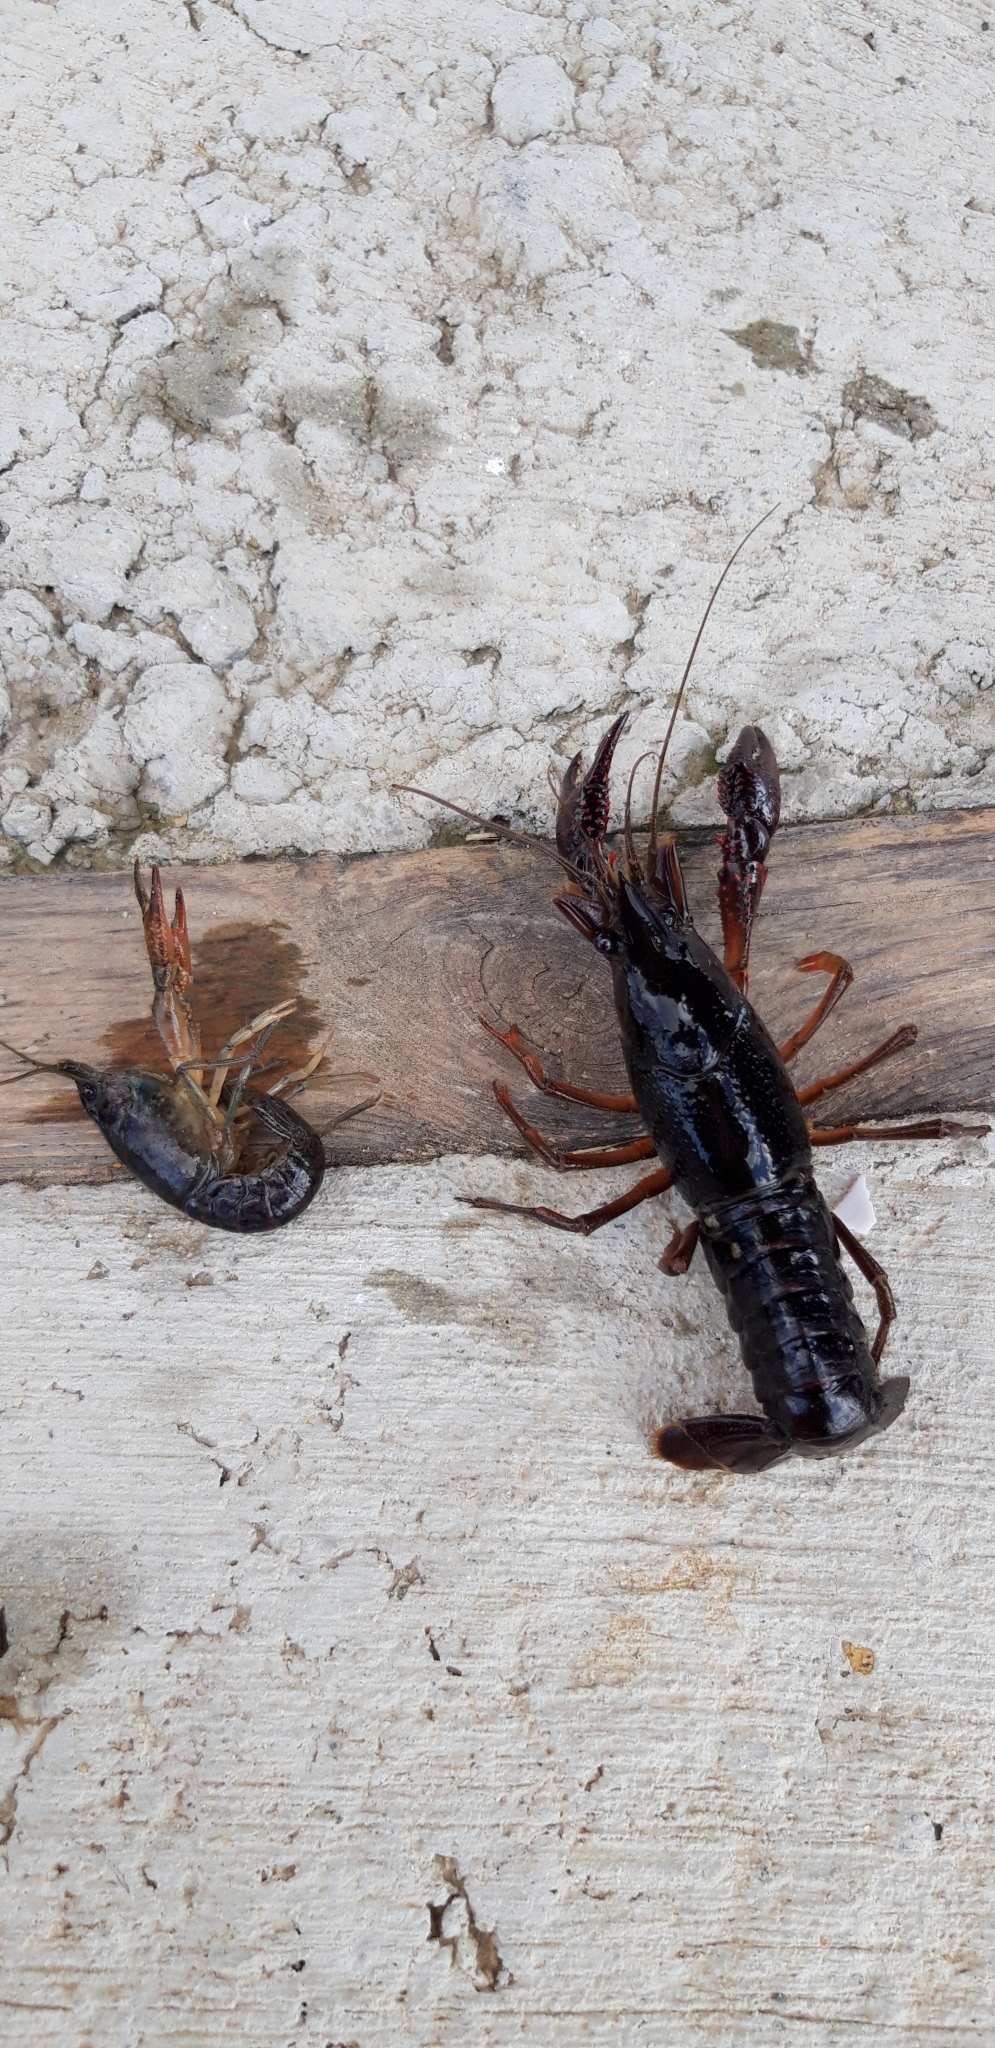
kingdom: Animalia
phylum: Arthropoda
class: Malacostraca
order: Decapoda
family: Cambaridae
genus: Procambarus
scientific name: Procambarus clarkii
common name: Red swamp crayfish
